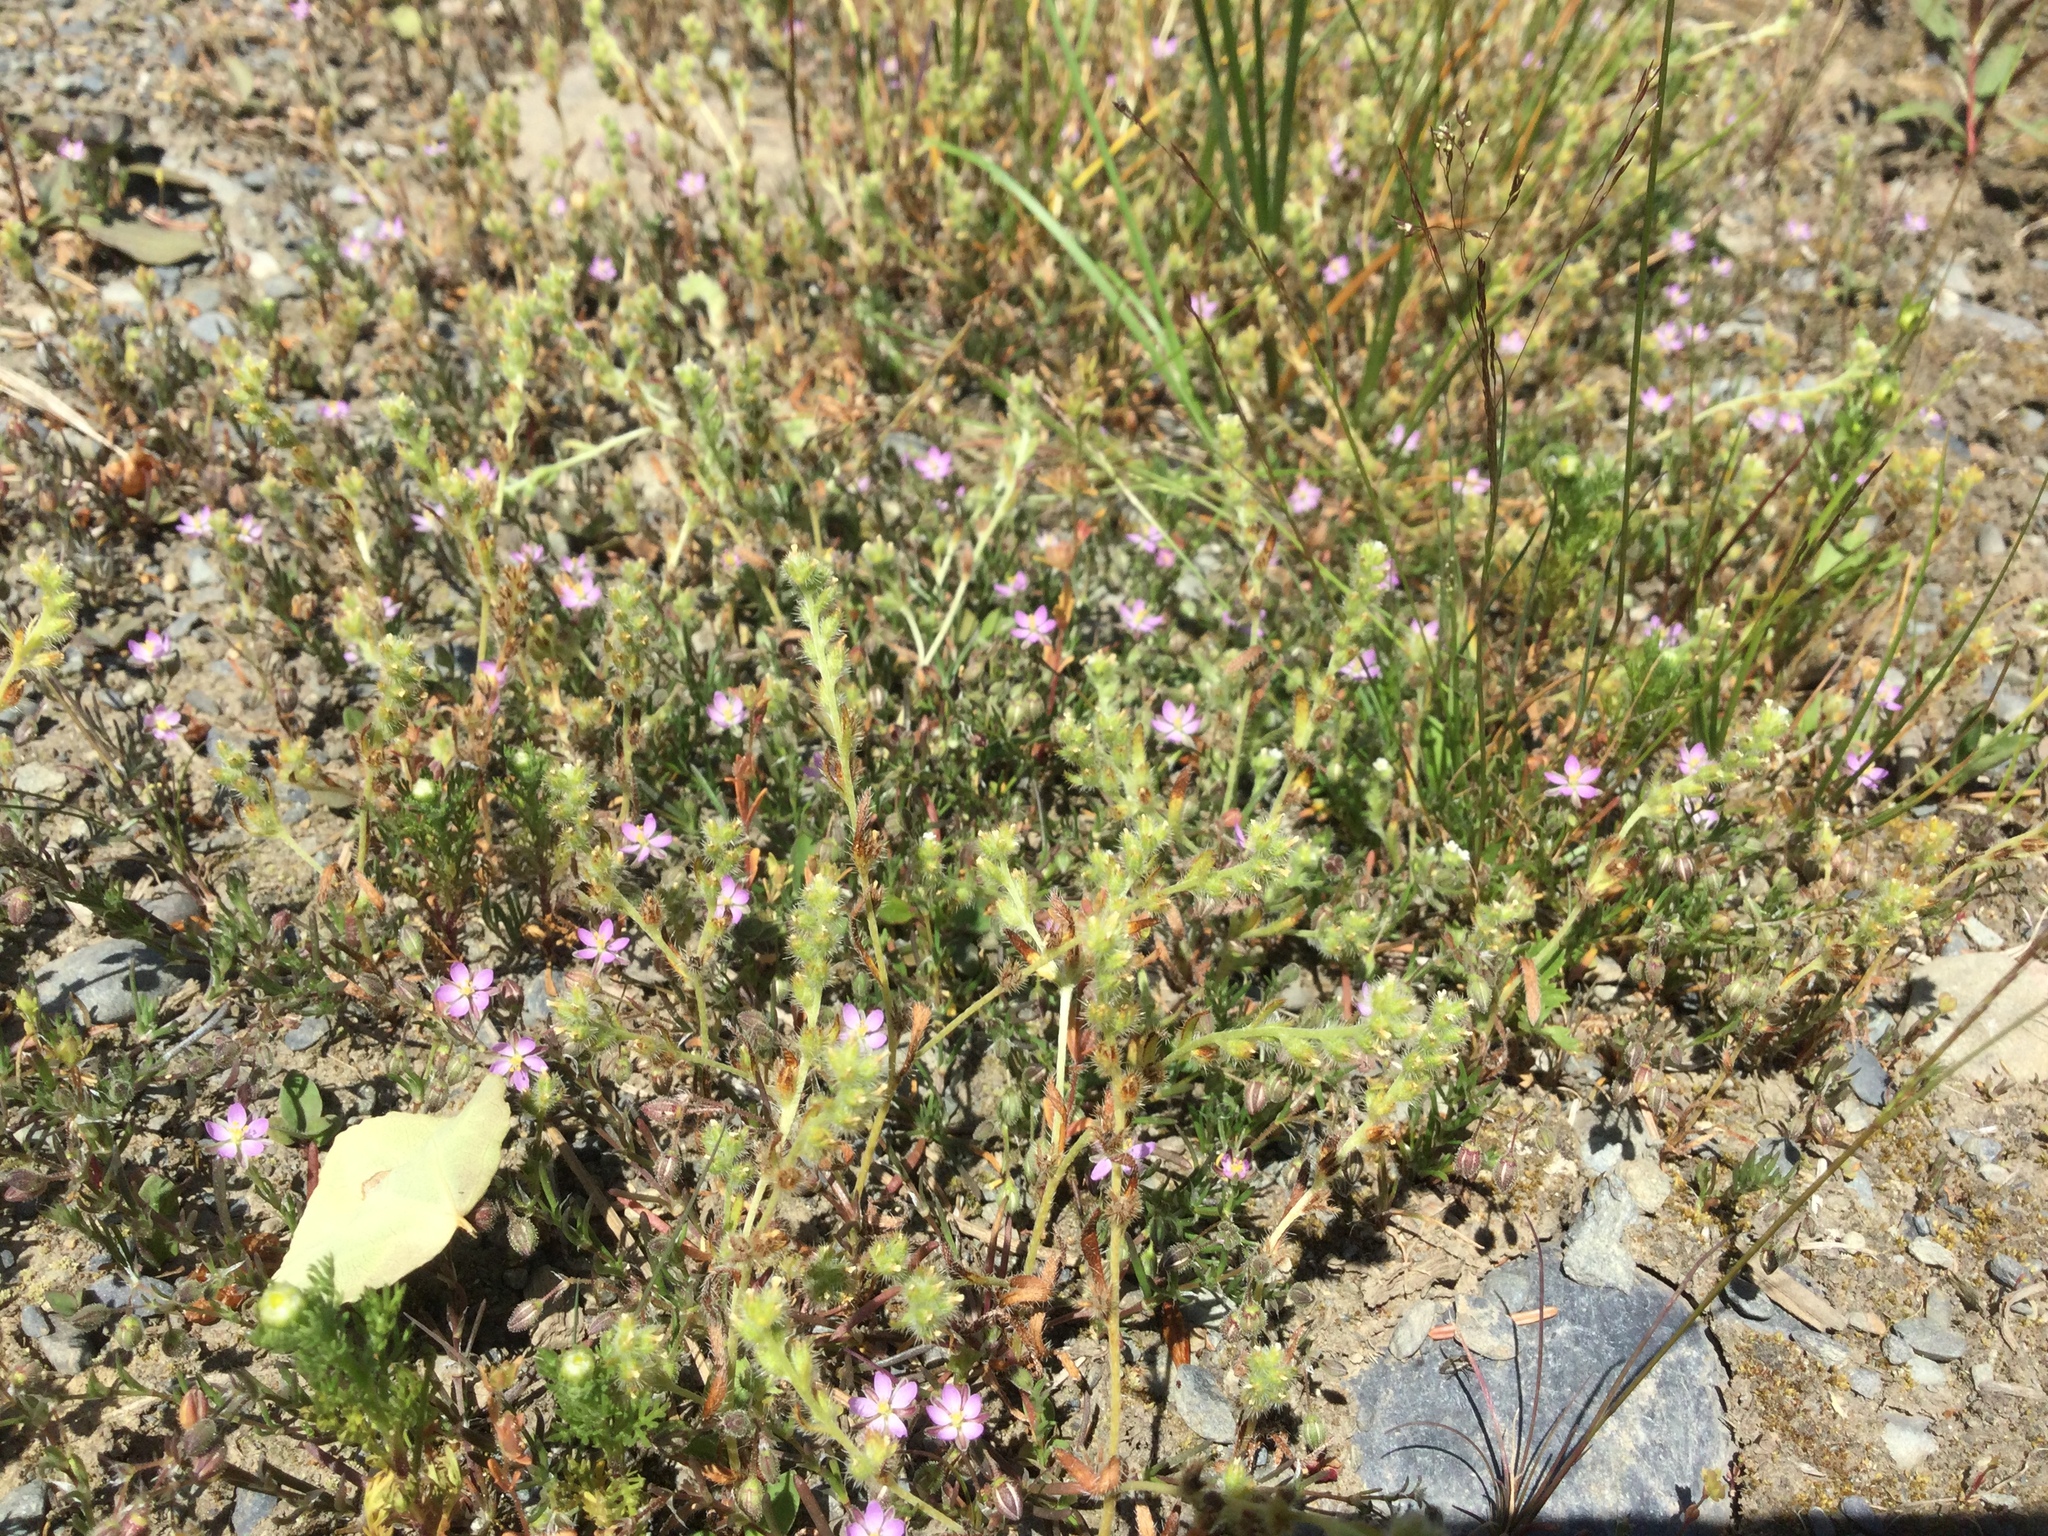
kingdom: Plantae
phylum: Tracheophyta
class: Magnoliopsida
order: Caryophyllales
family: Caryophyllaceae
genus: Spergularia
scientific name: Spergularia rubra
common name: Red sand-spurrey
